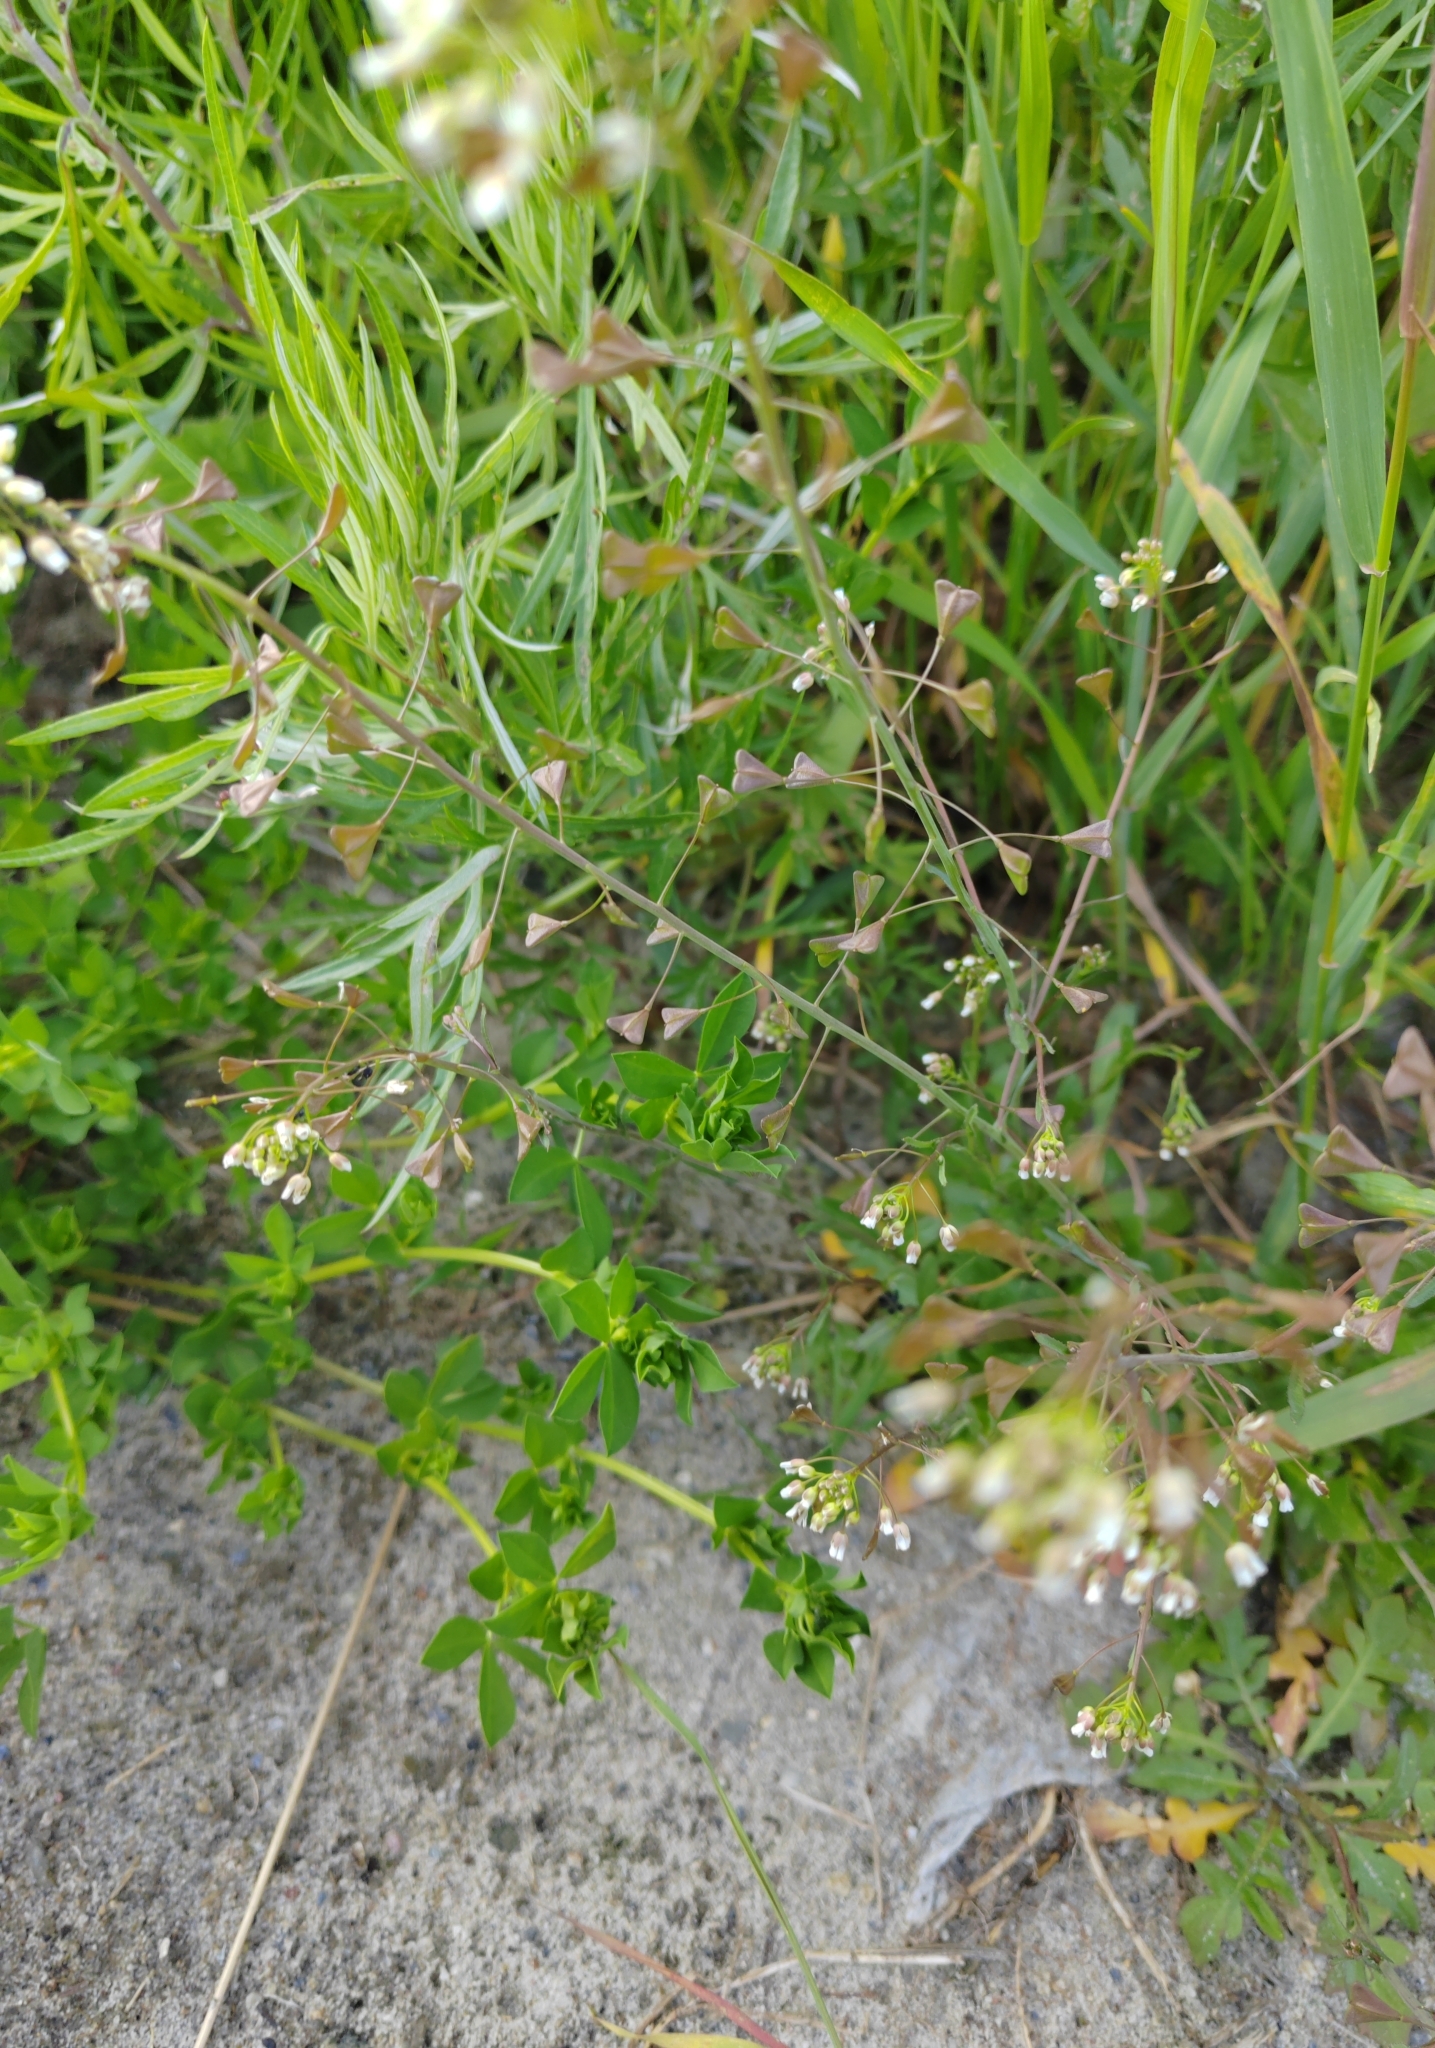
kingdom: Plantae
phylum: Tracheophyta
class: Magnoliopsida
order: Brassicales
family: Brassicaceae
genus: Capsella
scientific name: Capsella bursa-pastoris
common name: Shepherd's purse
